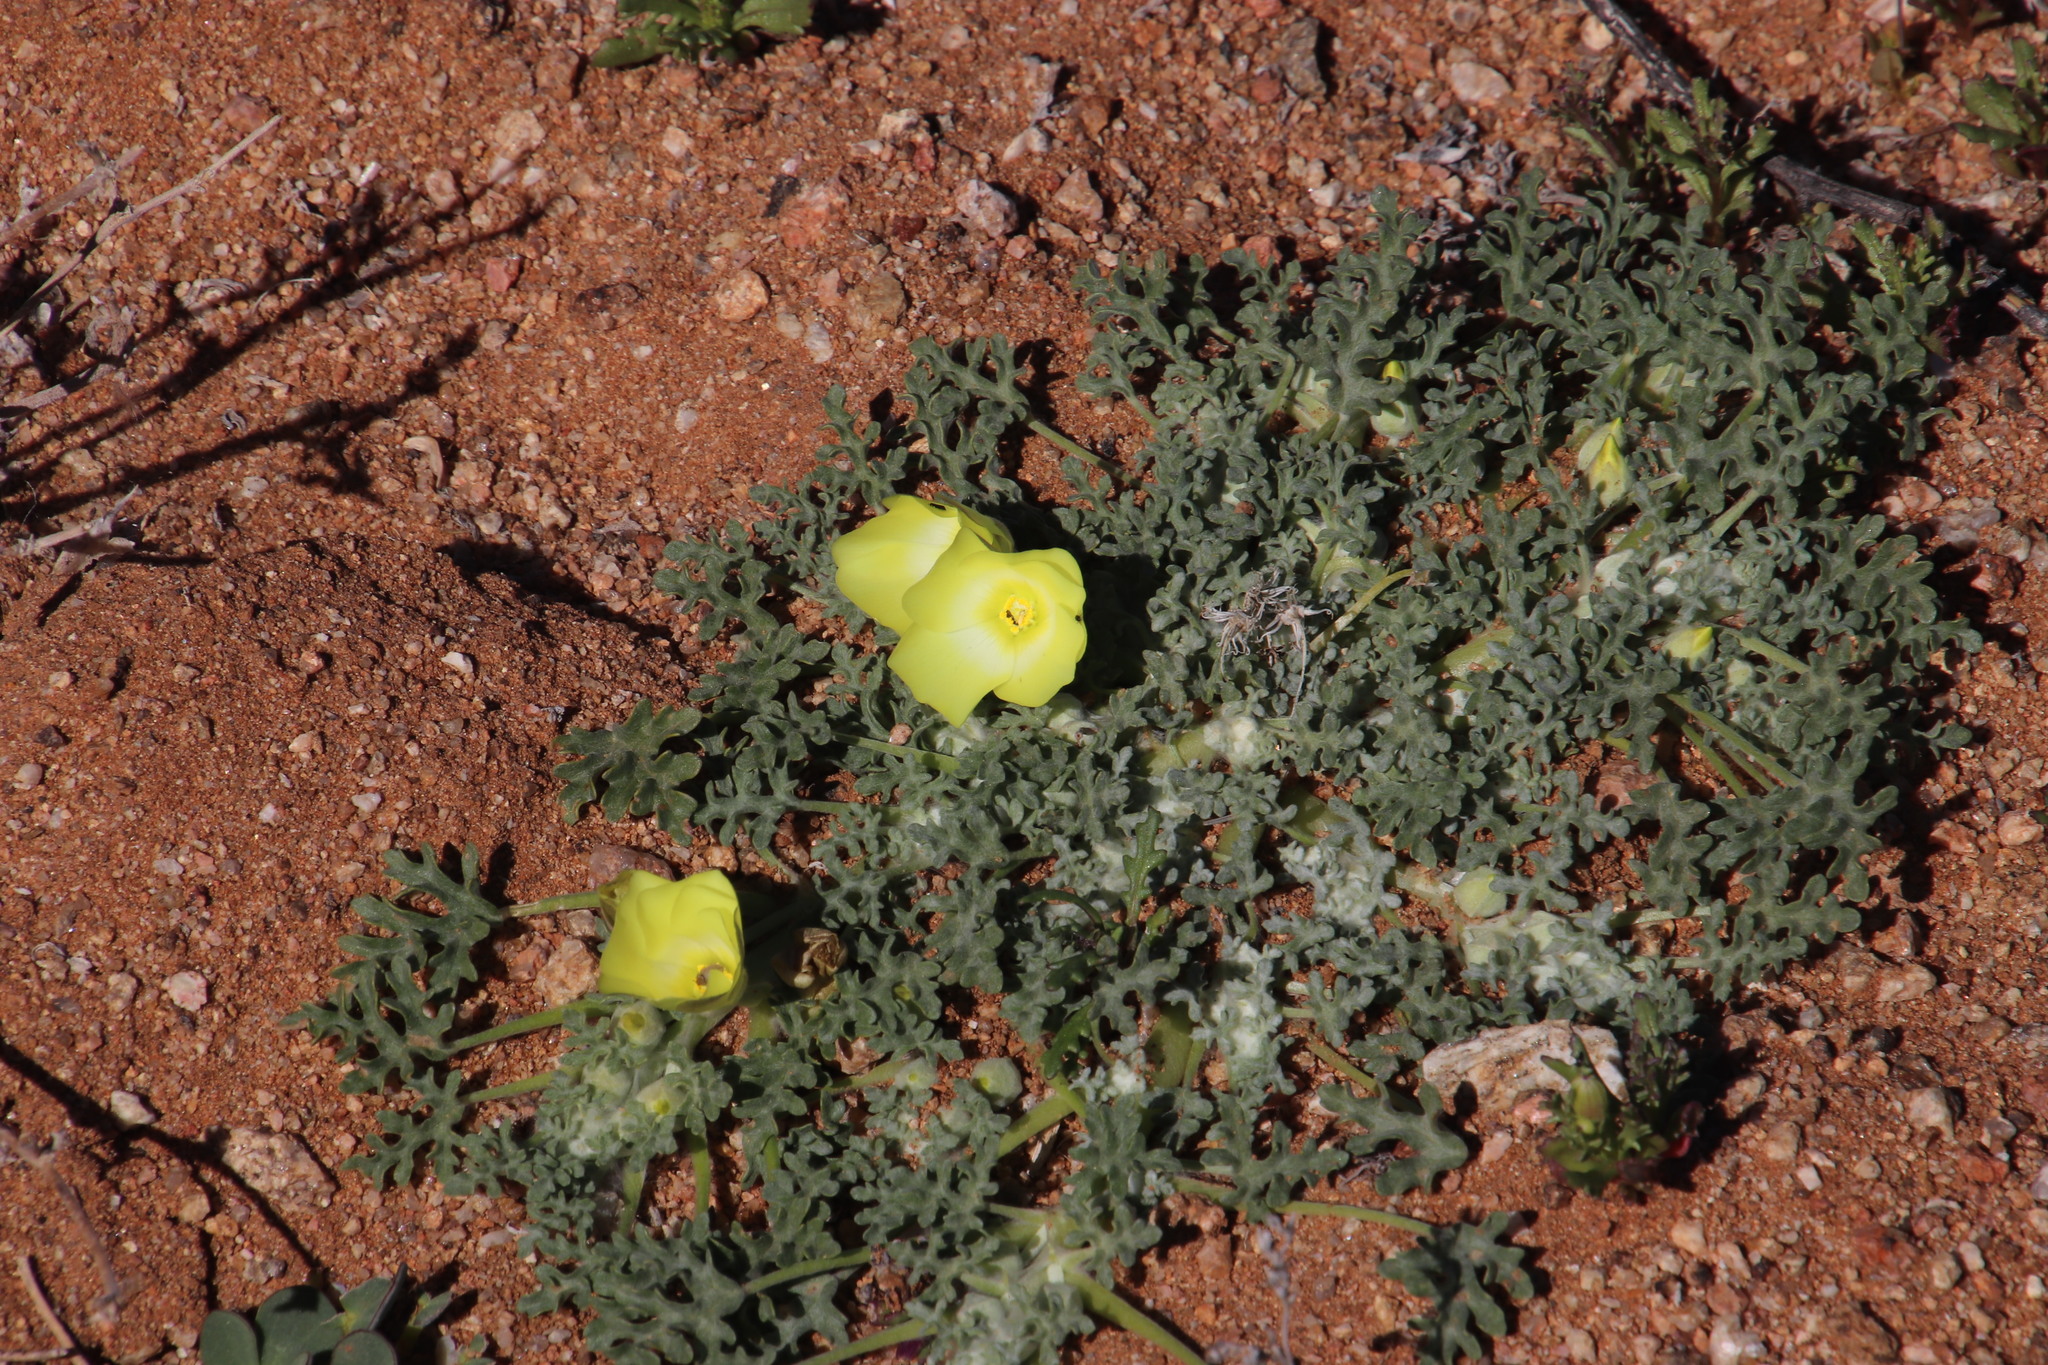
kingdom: Plantae
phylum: Tracheophyta
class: Magnoliopsida
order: Malvales
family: Neuradaceae
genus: Grielum
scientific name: Grielum humifusum
